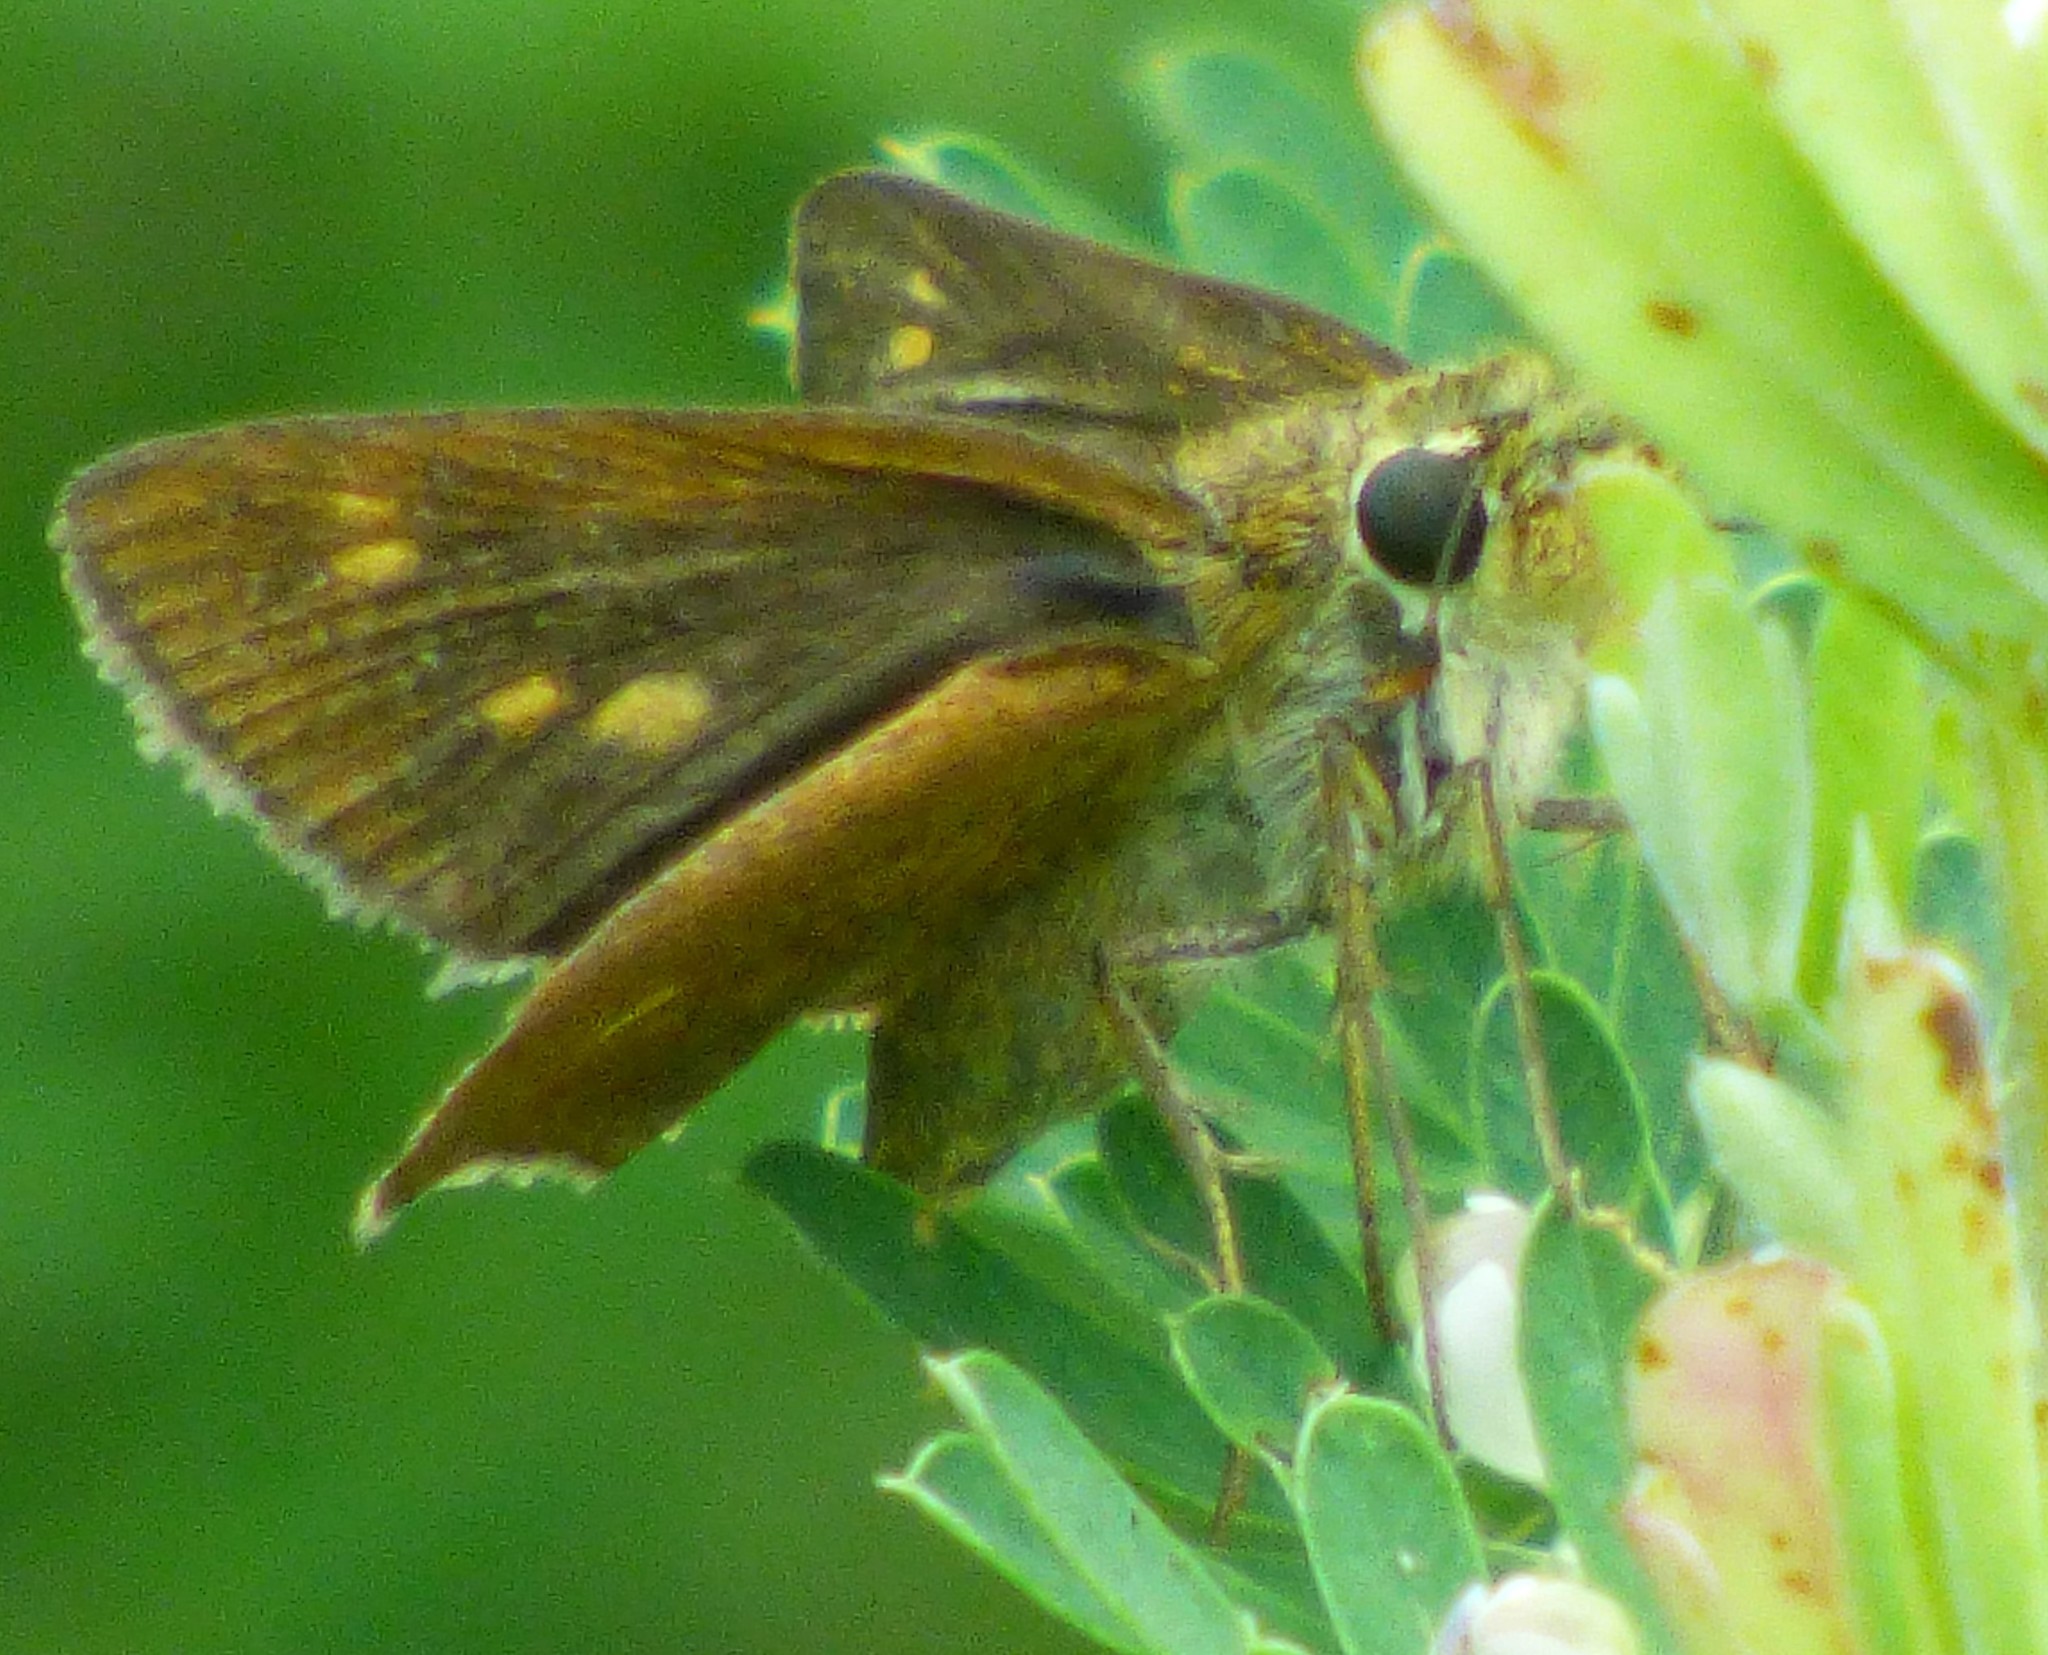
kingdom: Animalia
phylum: Arthropoda
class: Insecta
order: Lepidoptera
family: Hesperiidae
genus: Polites
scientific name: Polites egeremet
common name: Northern broken-dash
